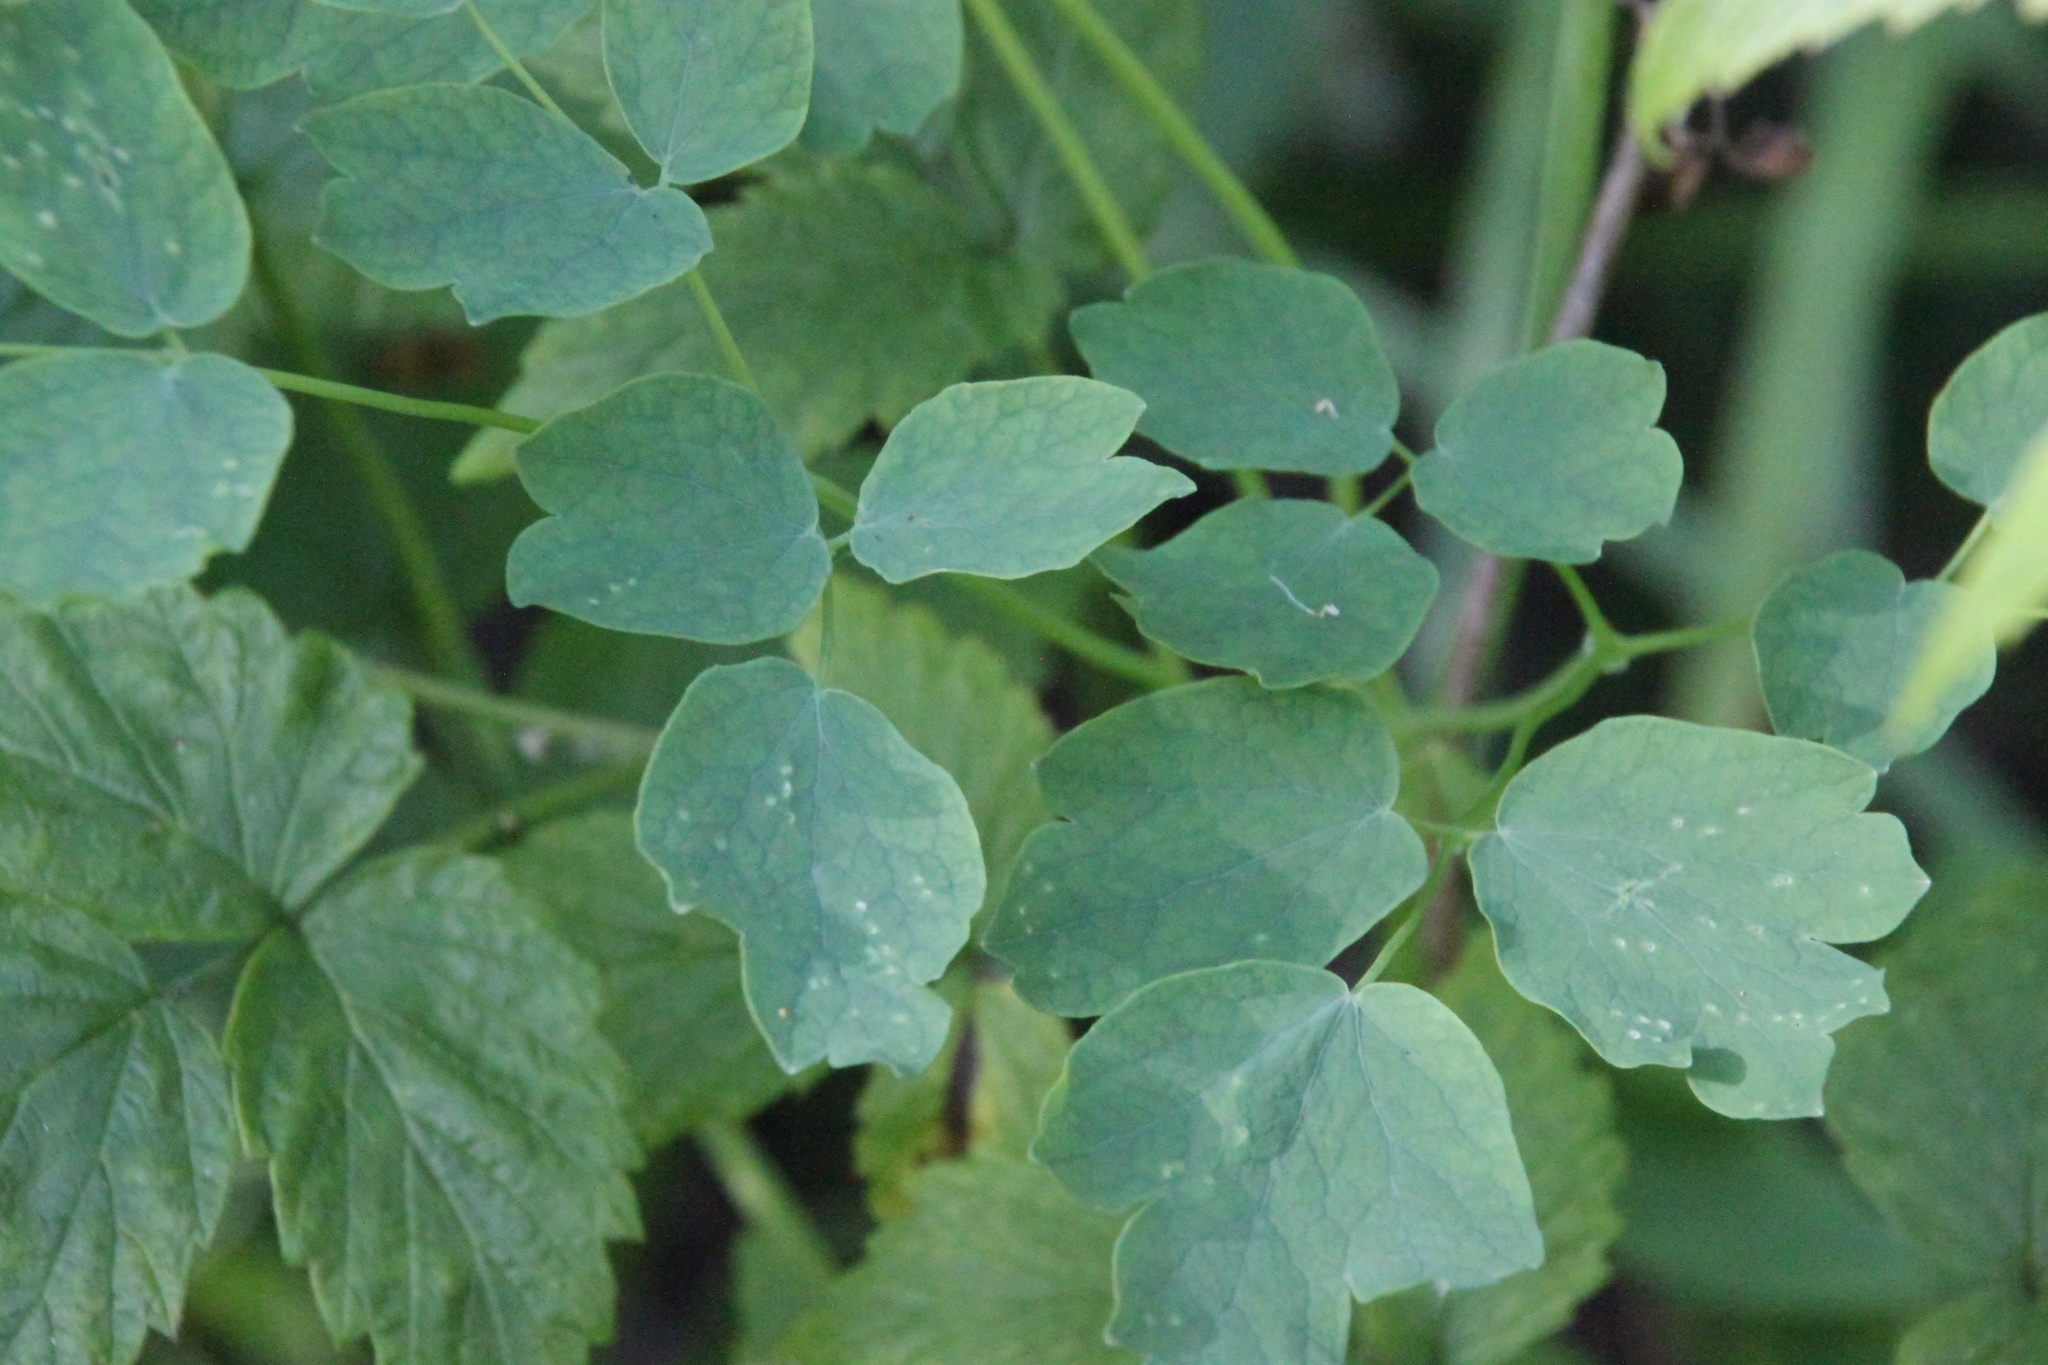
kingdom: Plantae
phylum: Tracheophyta
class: Magnoliopsida
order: Ranunculales
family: Ranunculaceae
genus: Thalictrum
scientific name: Thalictrum aquilegiifolium
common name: French meadow-rue
